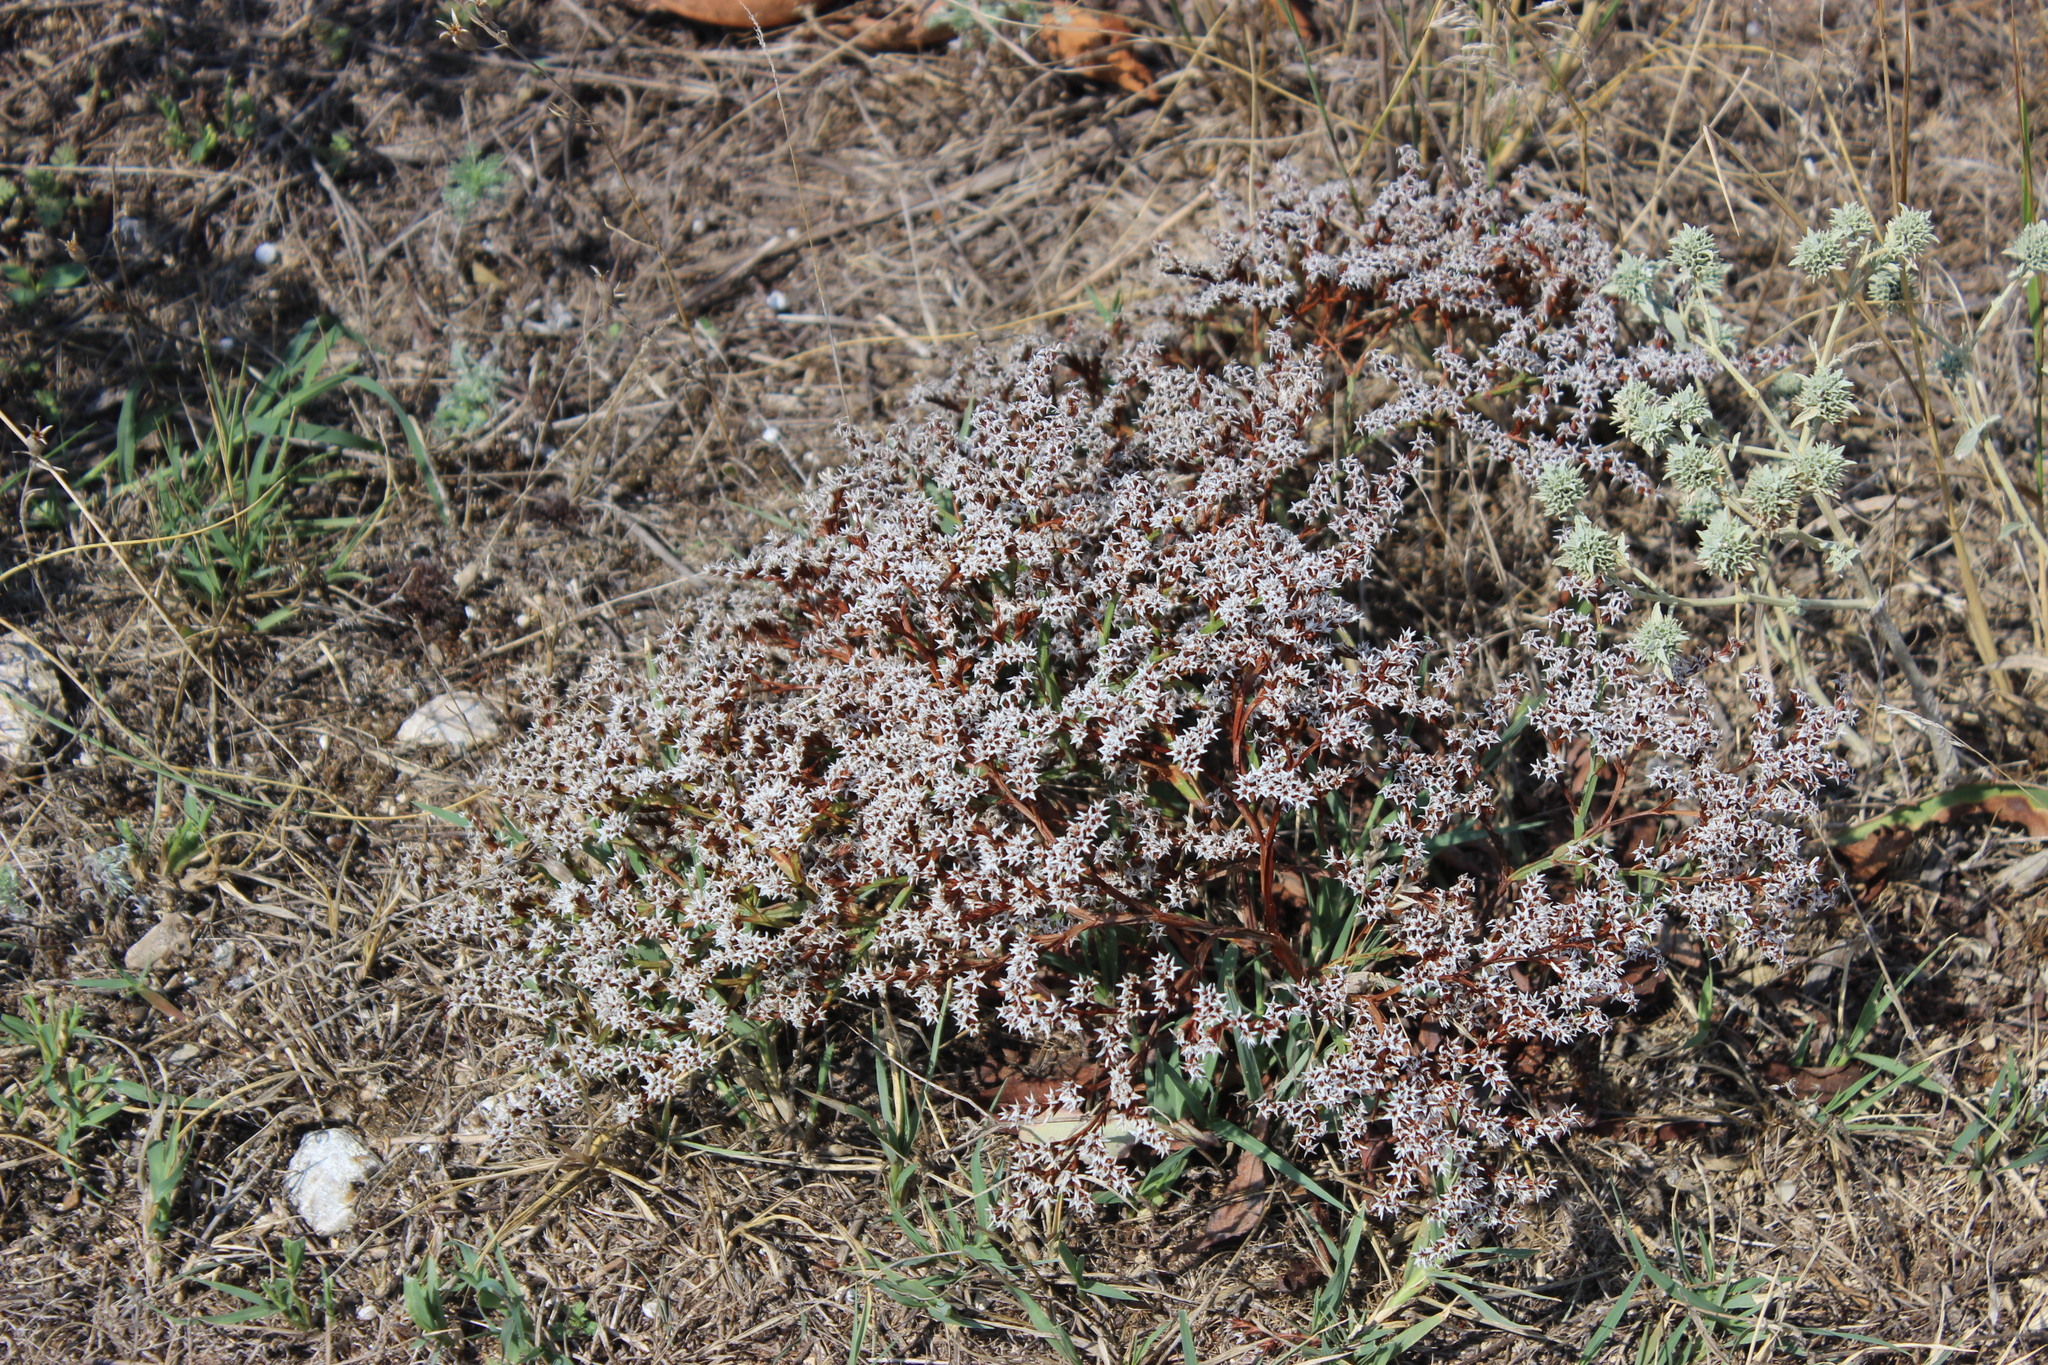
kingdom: Plantae
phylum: Tracheophyta
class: Magnoliopsida
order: Caryophyllales
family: Plumbaginaceae
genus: Goniolimon
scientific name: Goniolimon tataricum
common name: Statice
